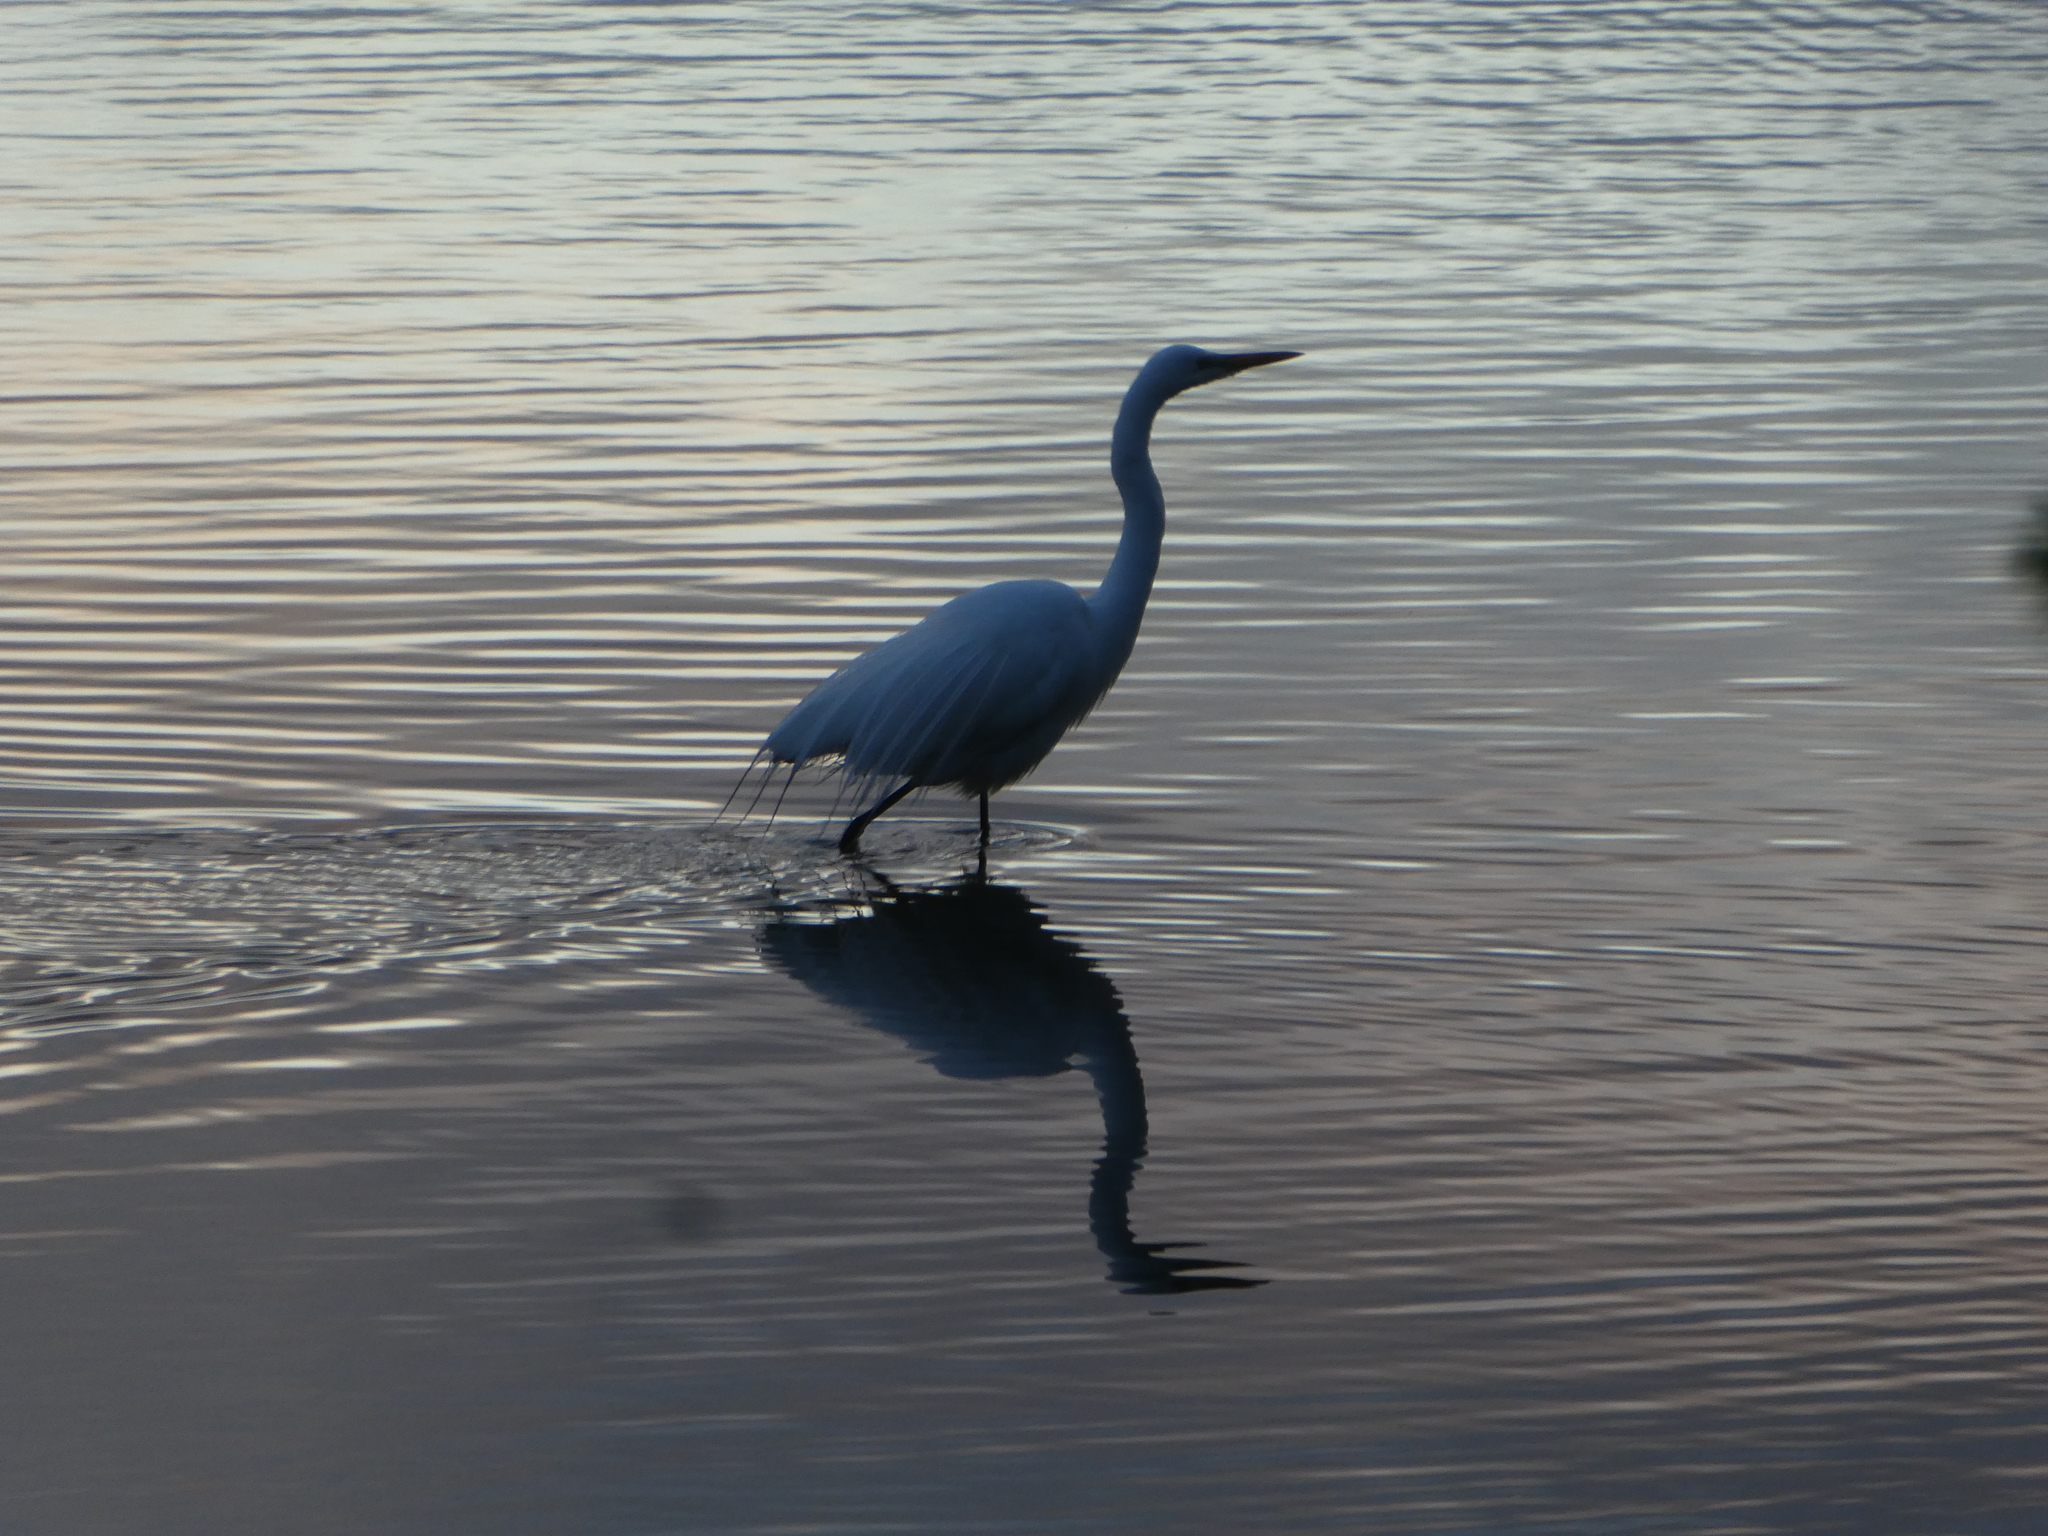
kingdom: Animalia
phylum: Chordata
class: Aves
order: Pelecaniformes
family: Ardeidae
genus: Ardea
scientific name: Ardea alba
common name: Great egret
